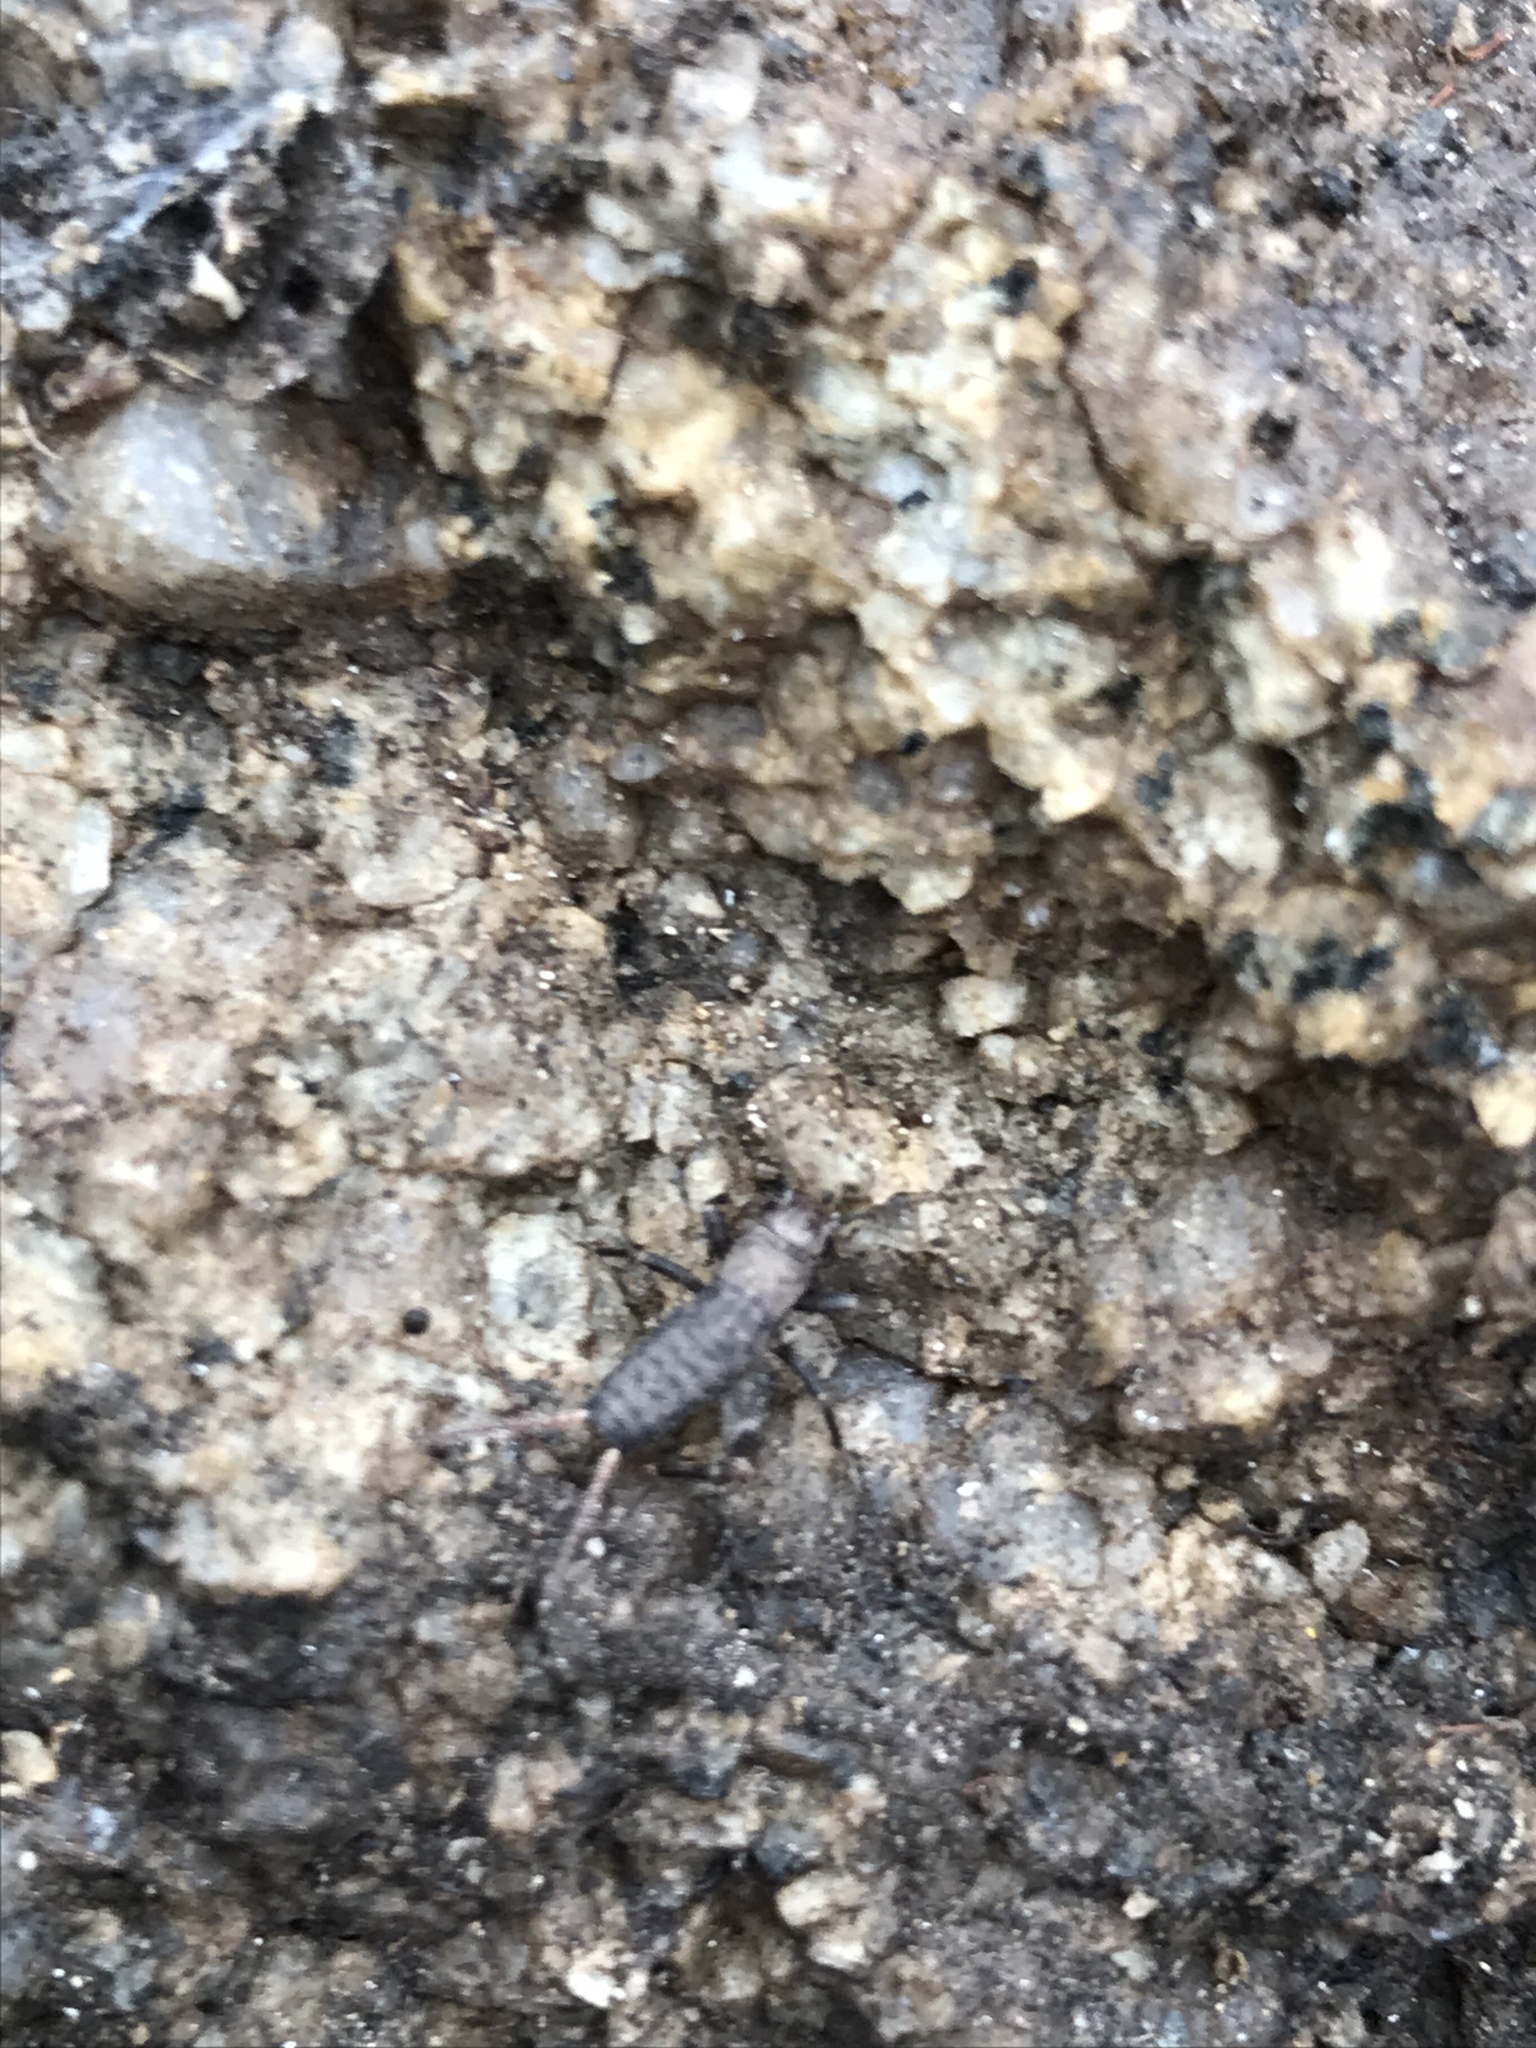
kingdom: Animalia
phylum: Arthropoda
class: Insecta
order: Orthoptera
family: Mogoplistidae
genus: Hoplosphyrum
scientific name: Hoplosphyrum boreale
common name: Long-winged scaly cricket
